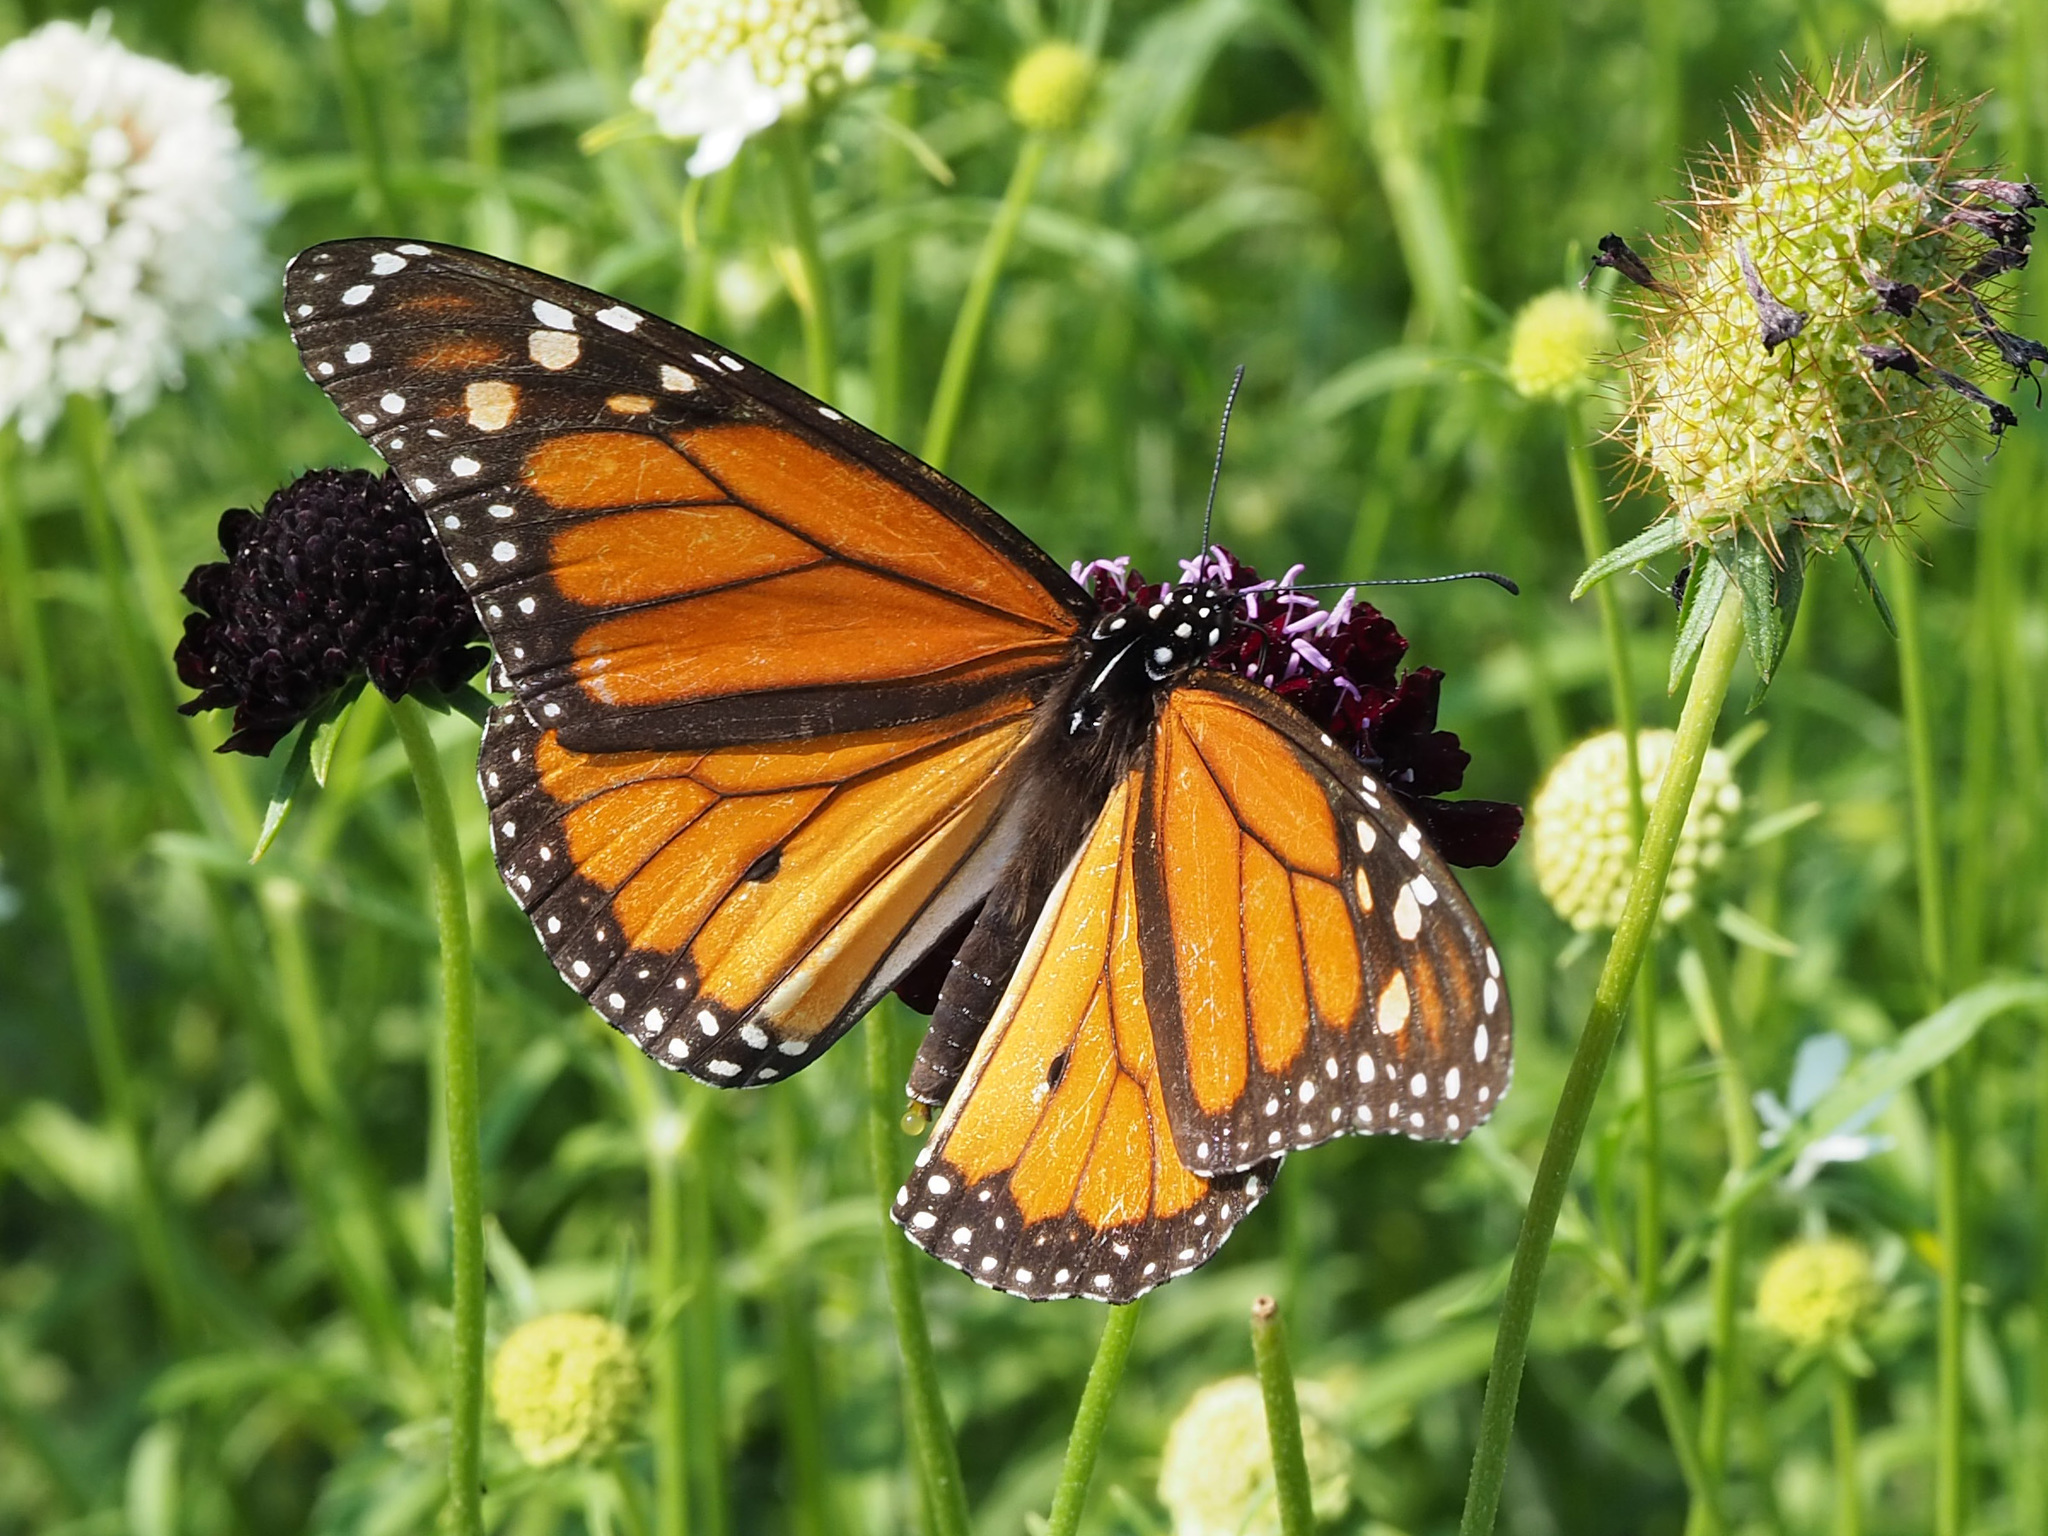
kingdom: Animalia
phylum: Arthropoda
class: Insecta
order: Lepidoptera
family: Nymphalidae
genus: Danaus
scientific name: Danaus plexippus
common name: Monarch
